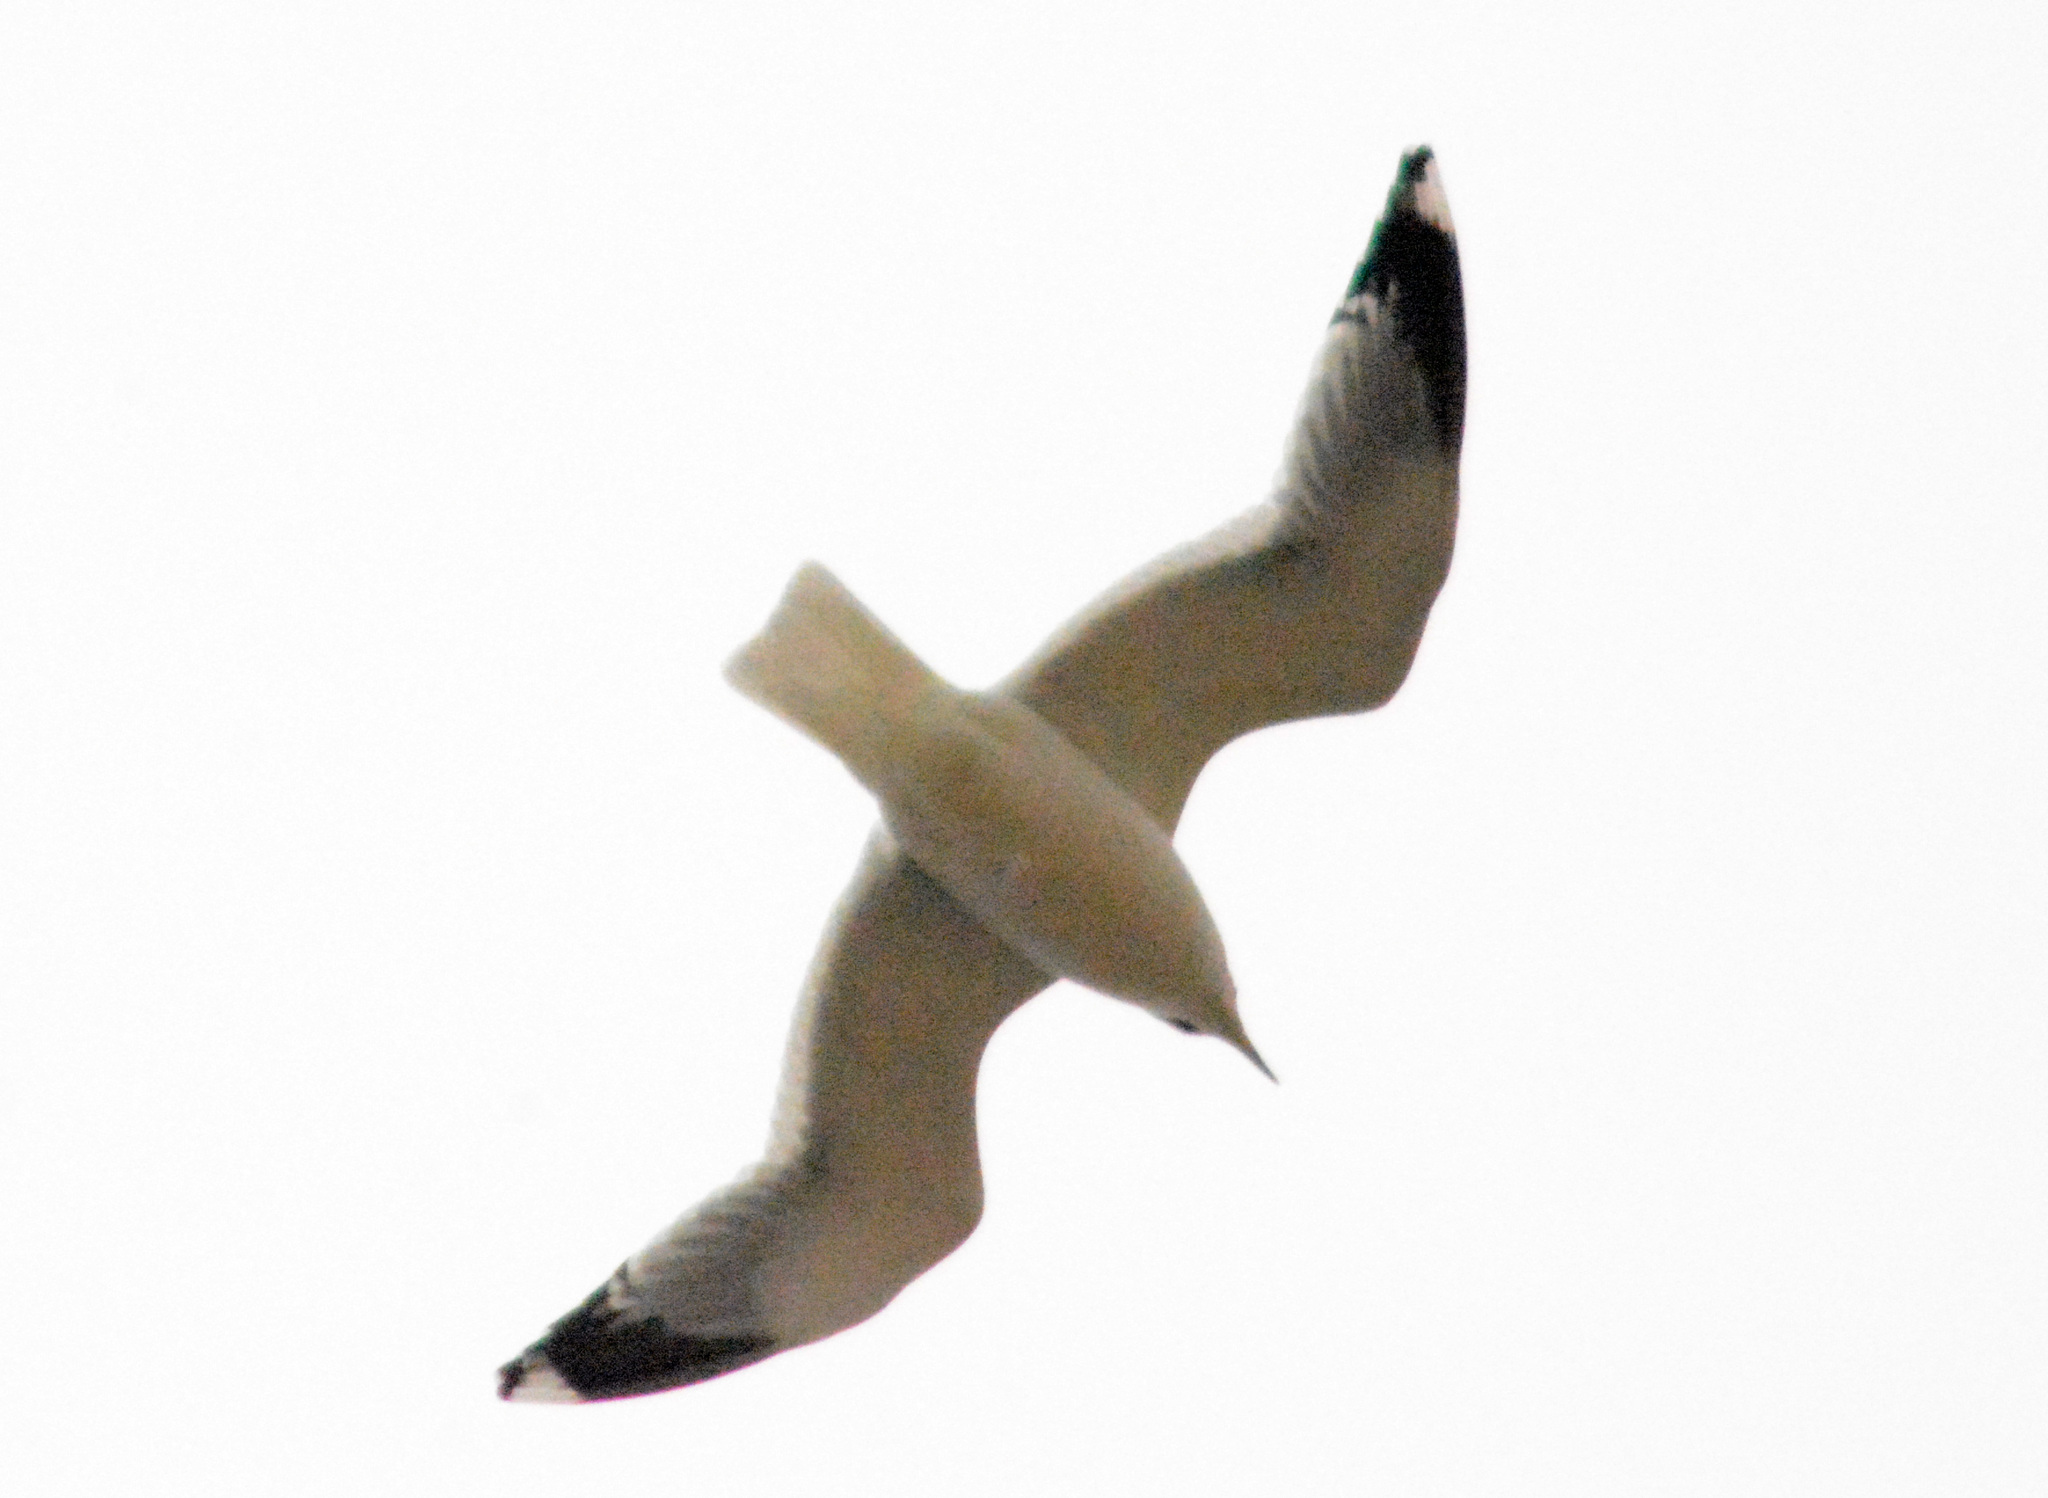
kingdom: Animalia
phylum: Chordata
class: Aves
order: Charadriiformes
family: Laridae
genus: Larus
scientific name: Larus canus
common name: Mew gull
